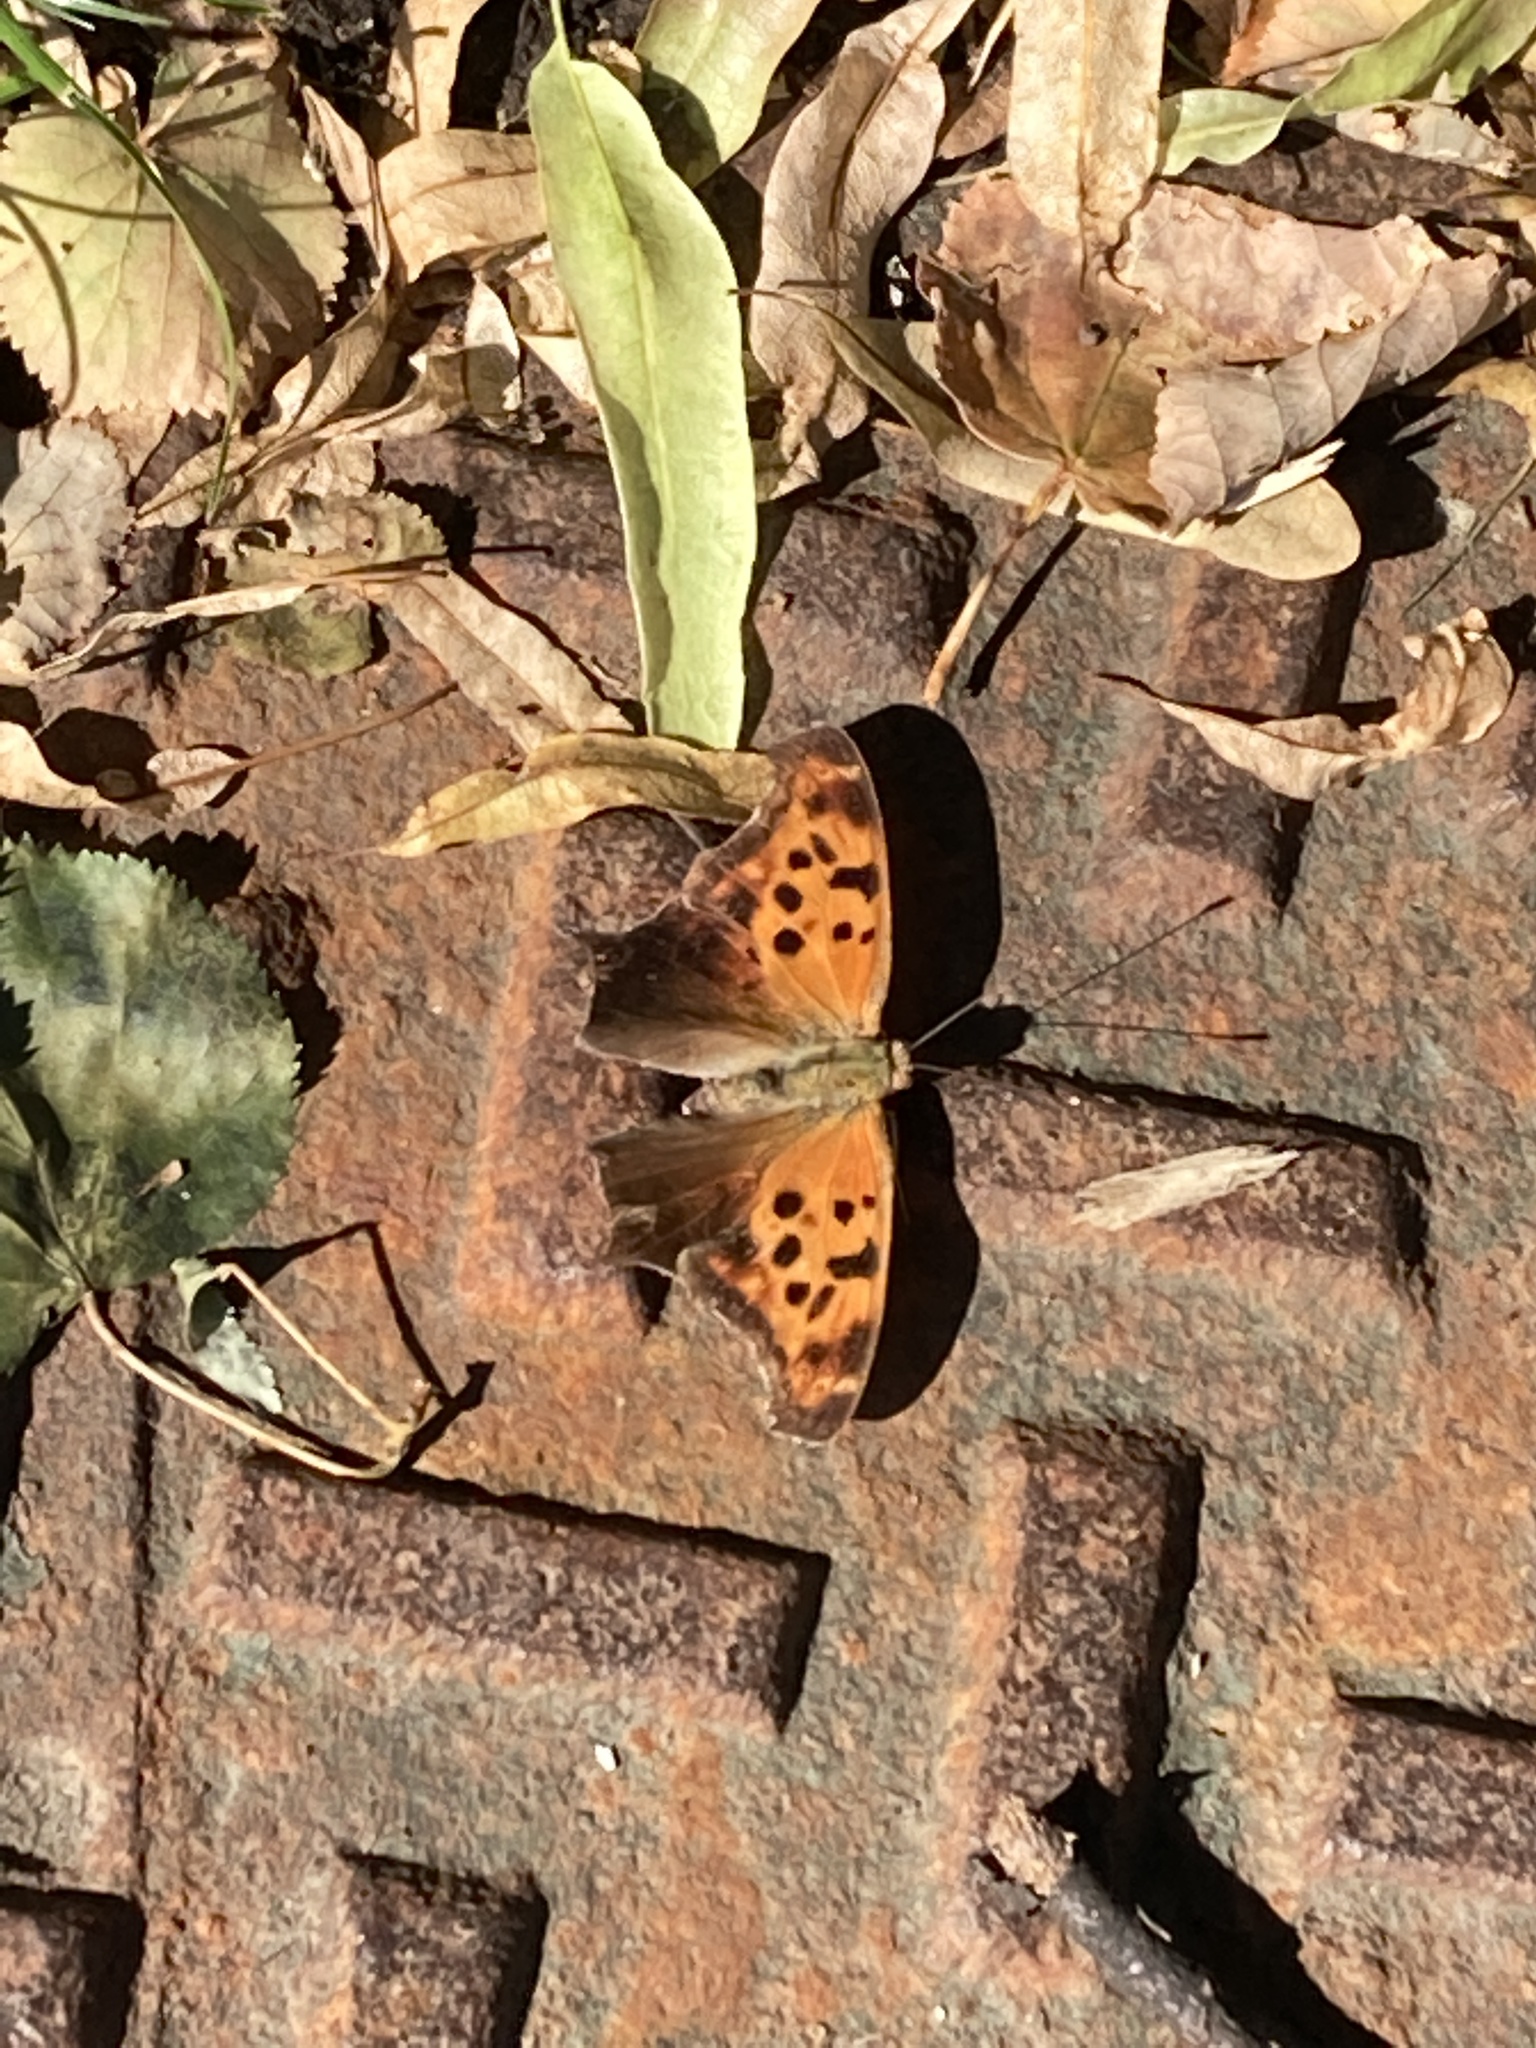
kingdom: Animalia
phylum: Arthropoda
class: Insecta
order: Lepidoptera
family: Nymphalidae
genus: Polygonia
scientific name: Polygonia interrogationis
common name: Question mark
